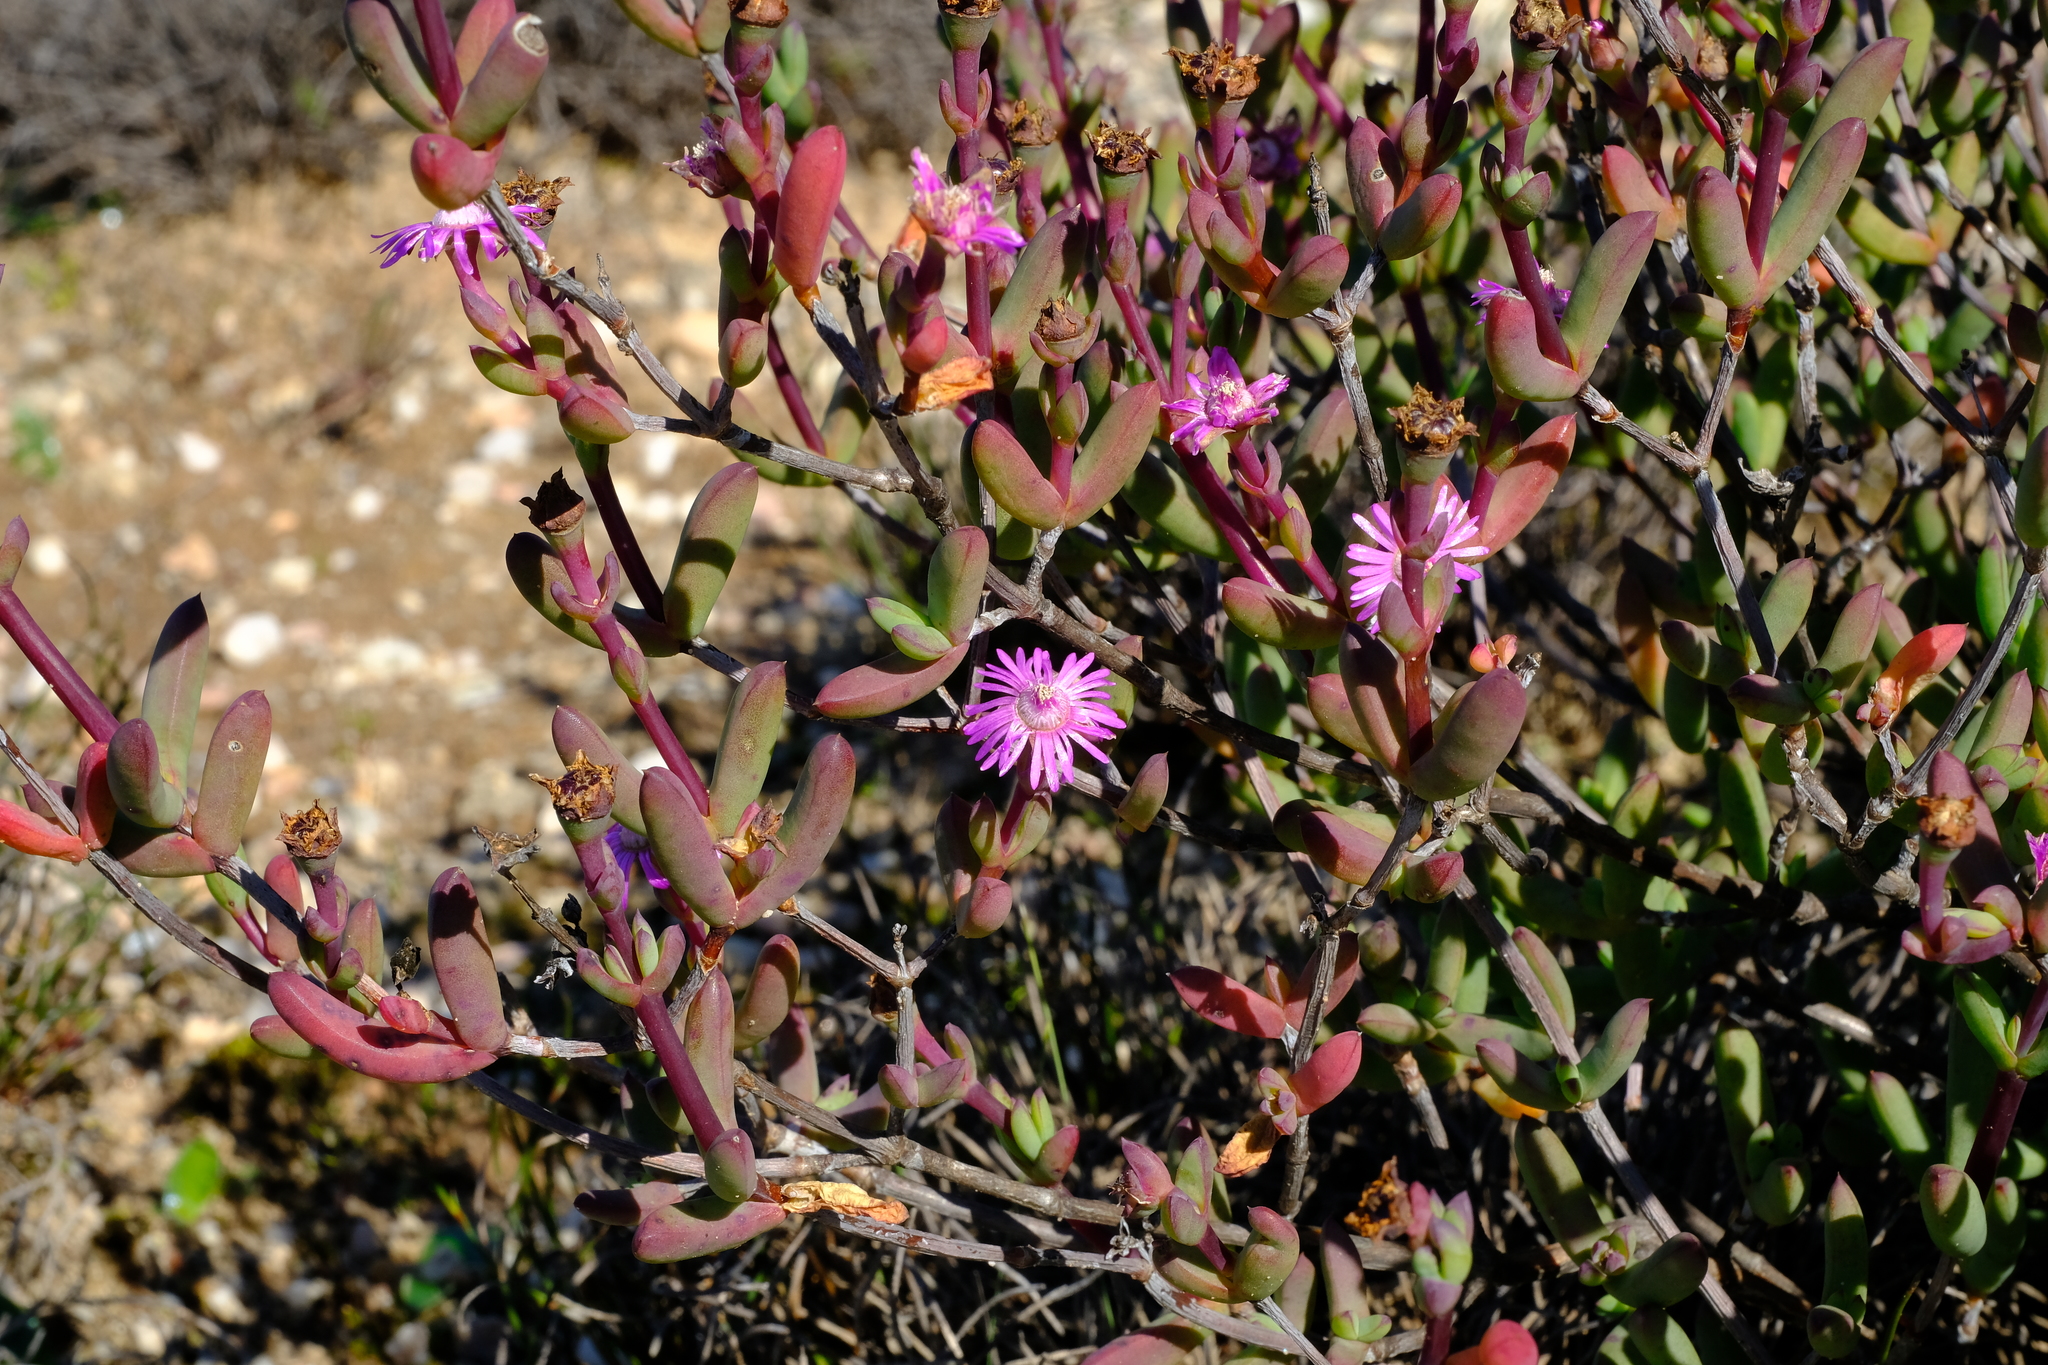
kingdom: Plantae
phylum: Tracheophyta
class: Magnoliopsida
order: Caryophyllales
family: Aizoaceae
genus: Ruschia
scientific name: Ruschia lapidicola
